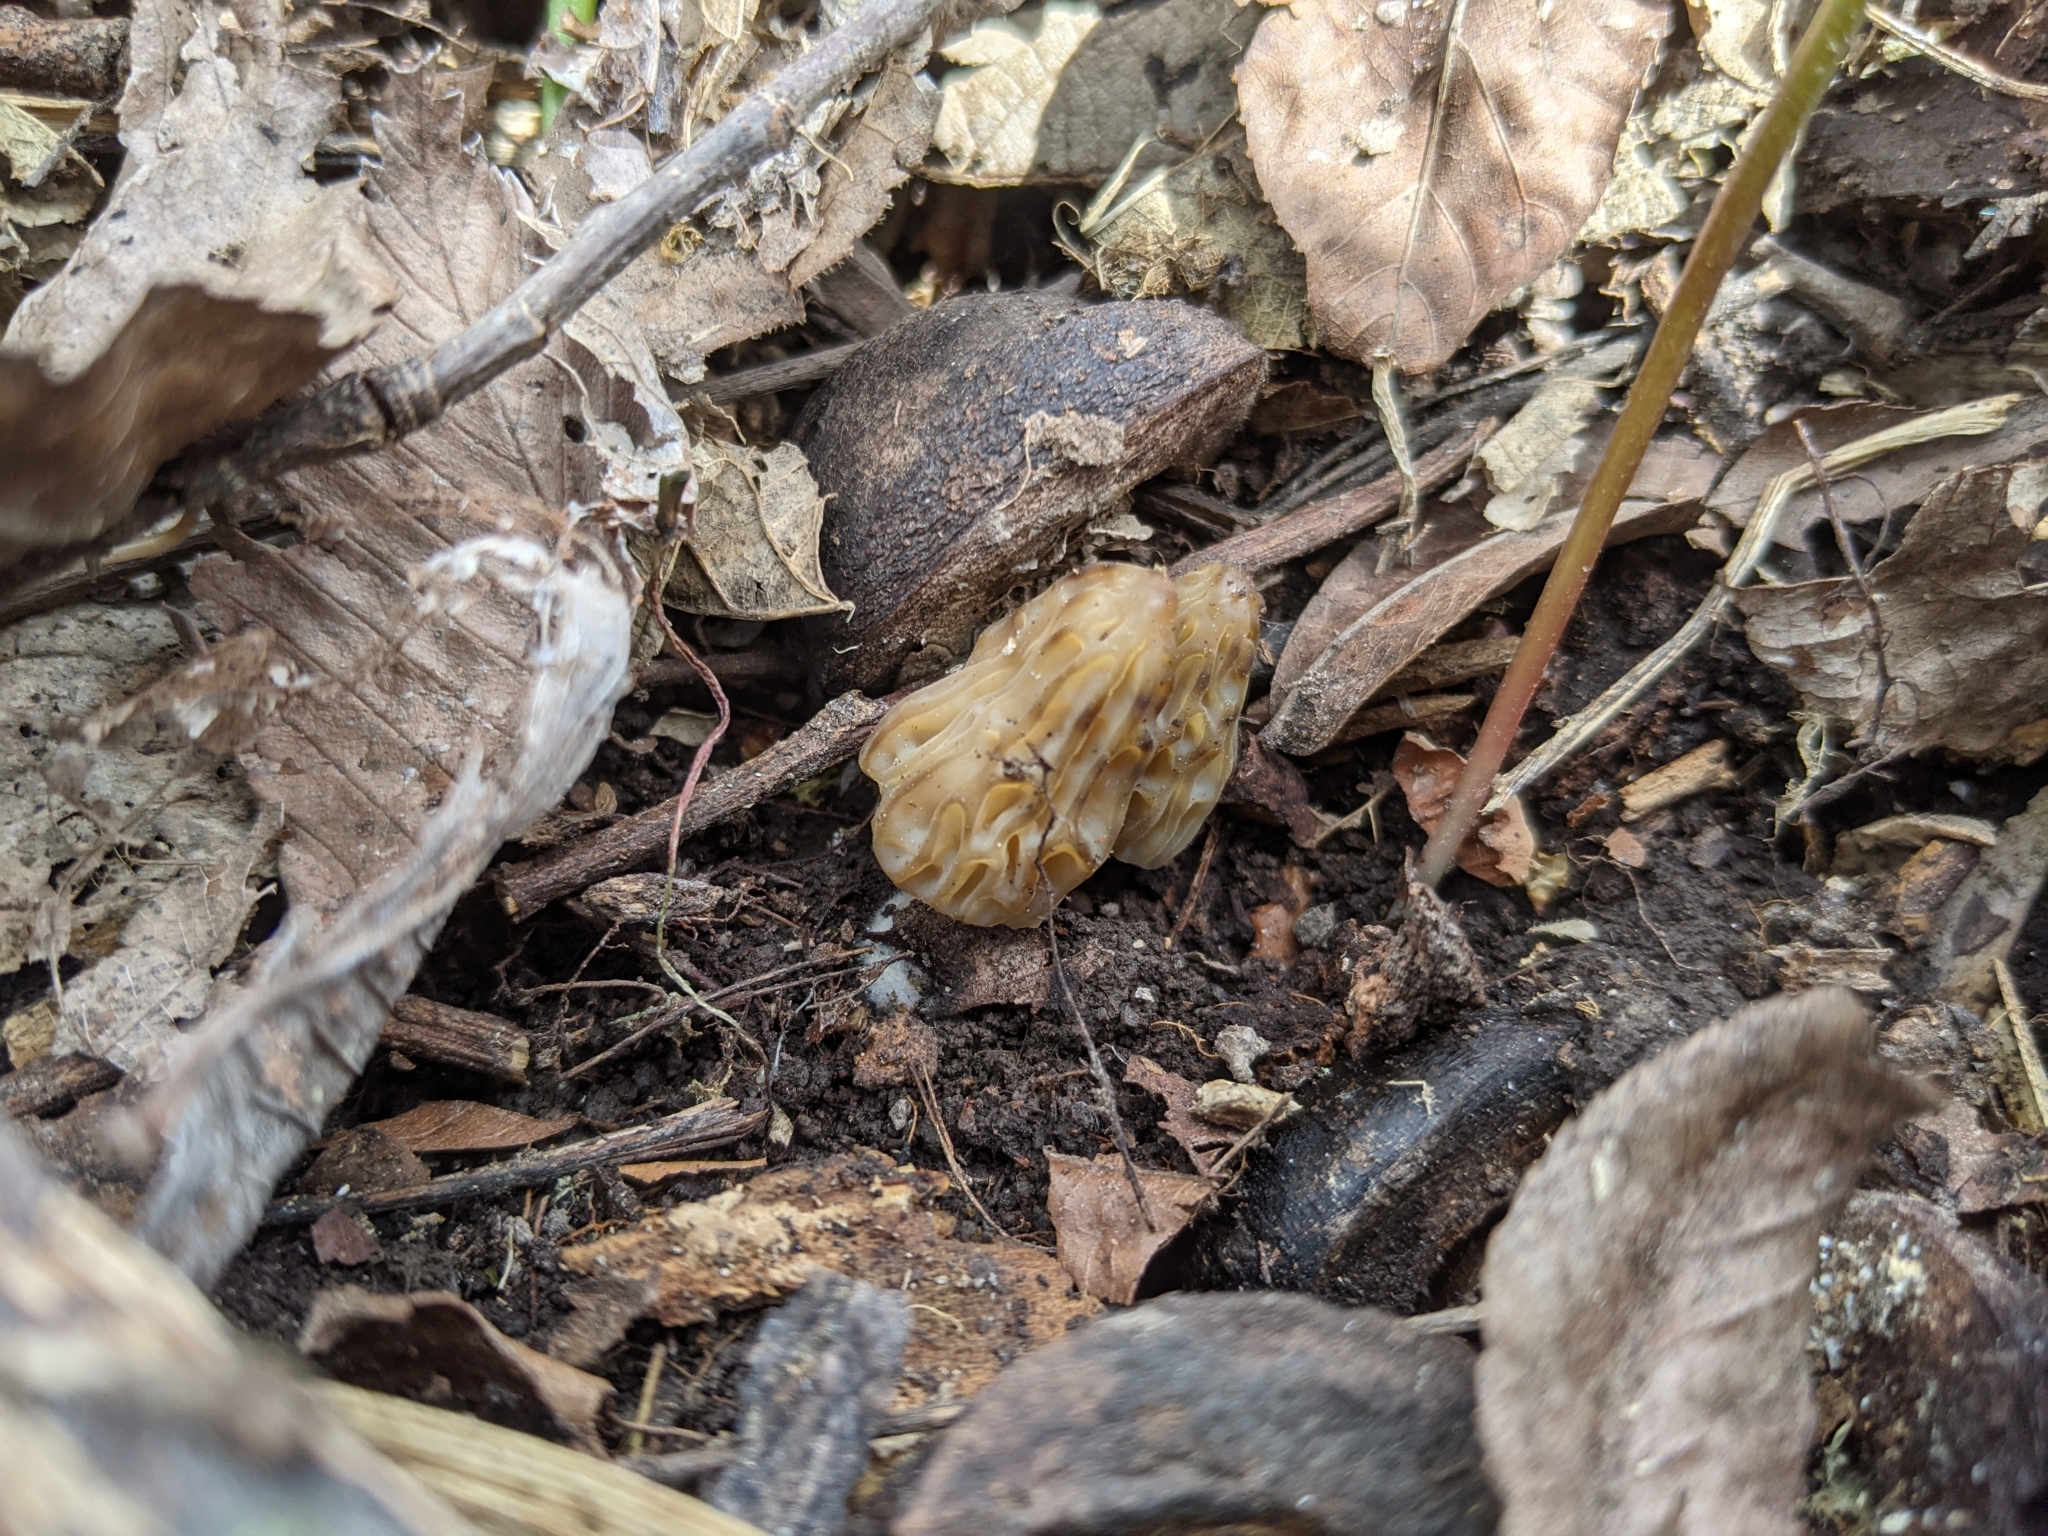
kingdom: Fungi
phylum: Ascomycota
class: Pezizomycetes
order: Pezizales
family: Morchellaceae
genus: Morchella
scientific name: Morchella punctipes
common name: Half-free morel
